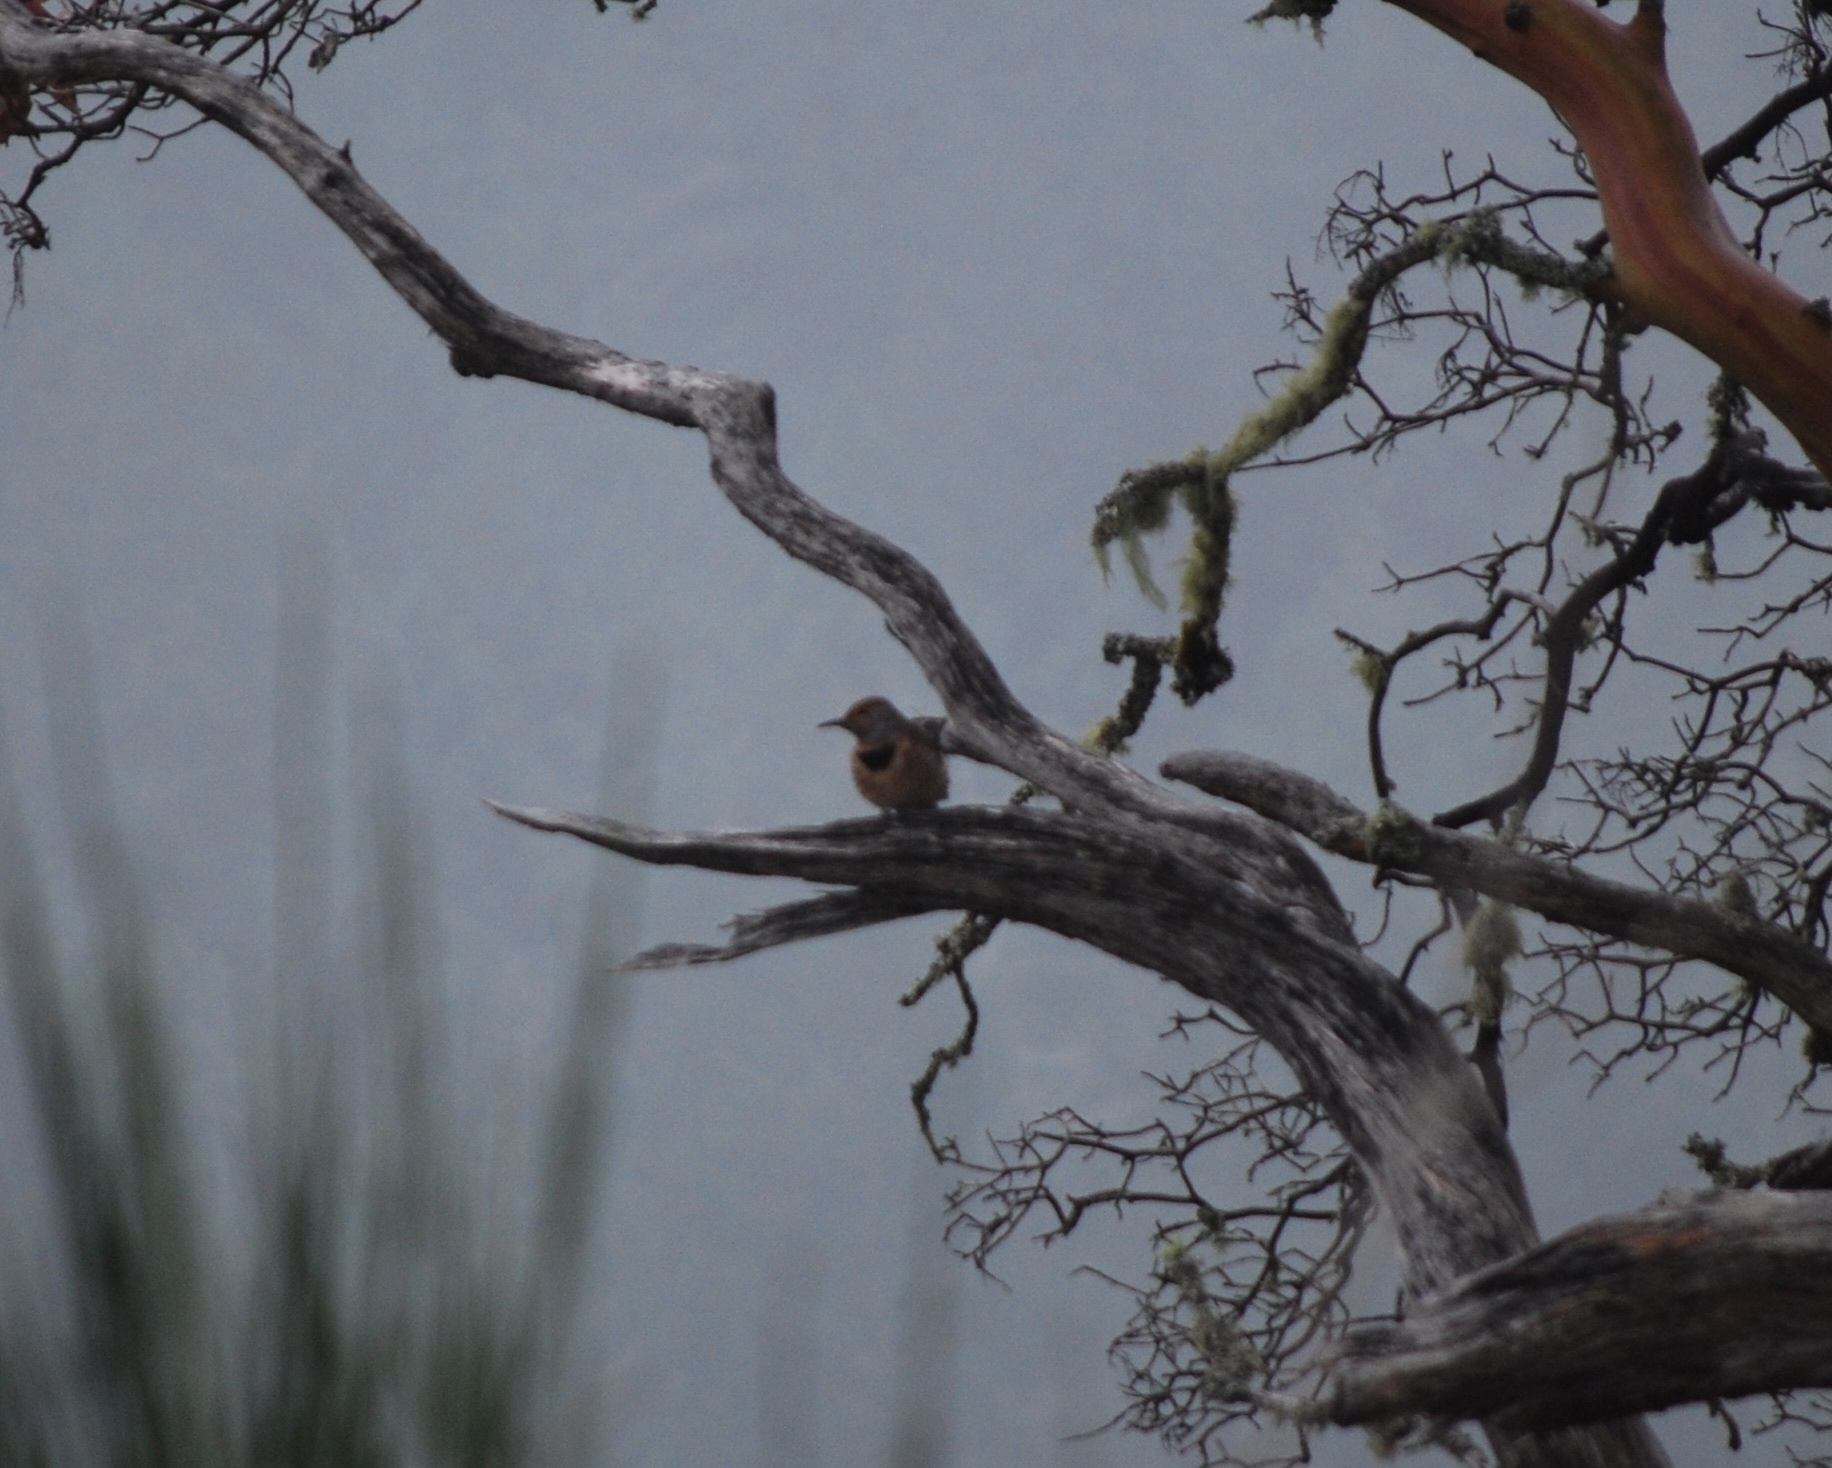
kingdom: Animalia
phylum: Chordata
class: Aves
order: Piciformes
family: Picidae
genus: Colaptes
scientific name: Colaptes auratus
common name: Northern flicker
